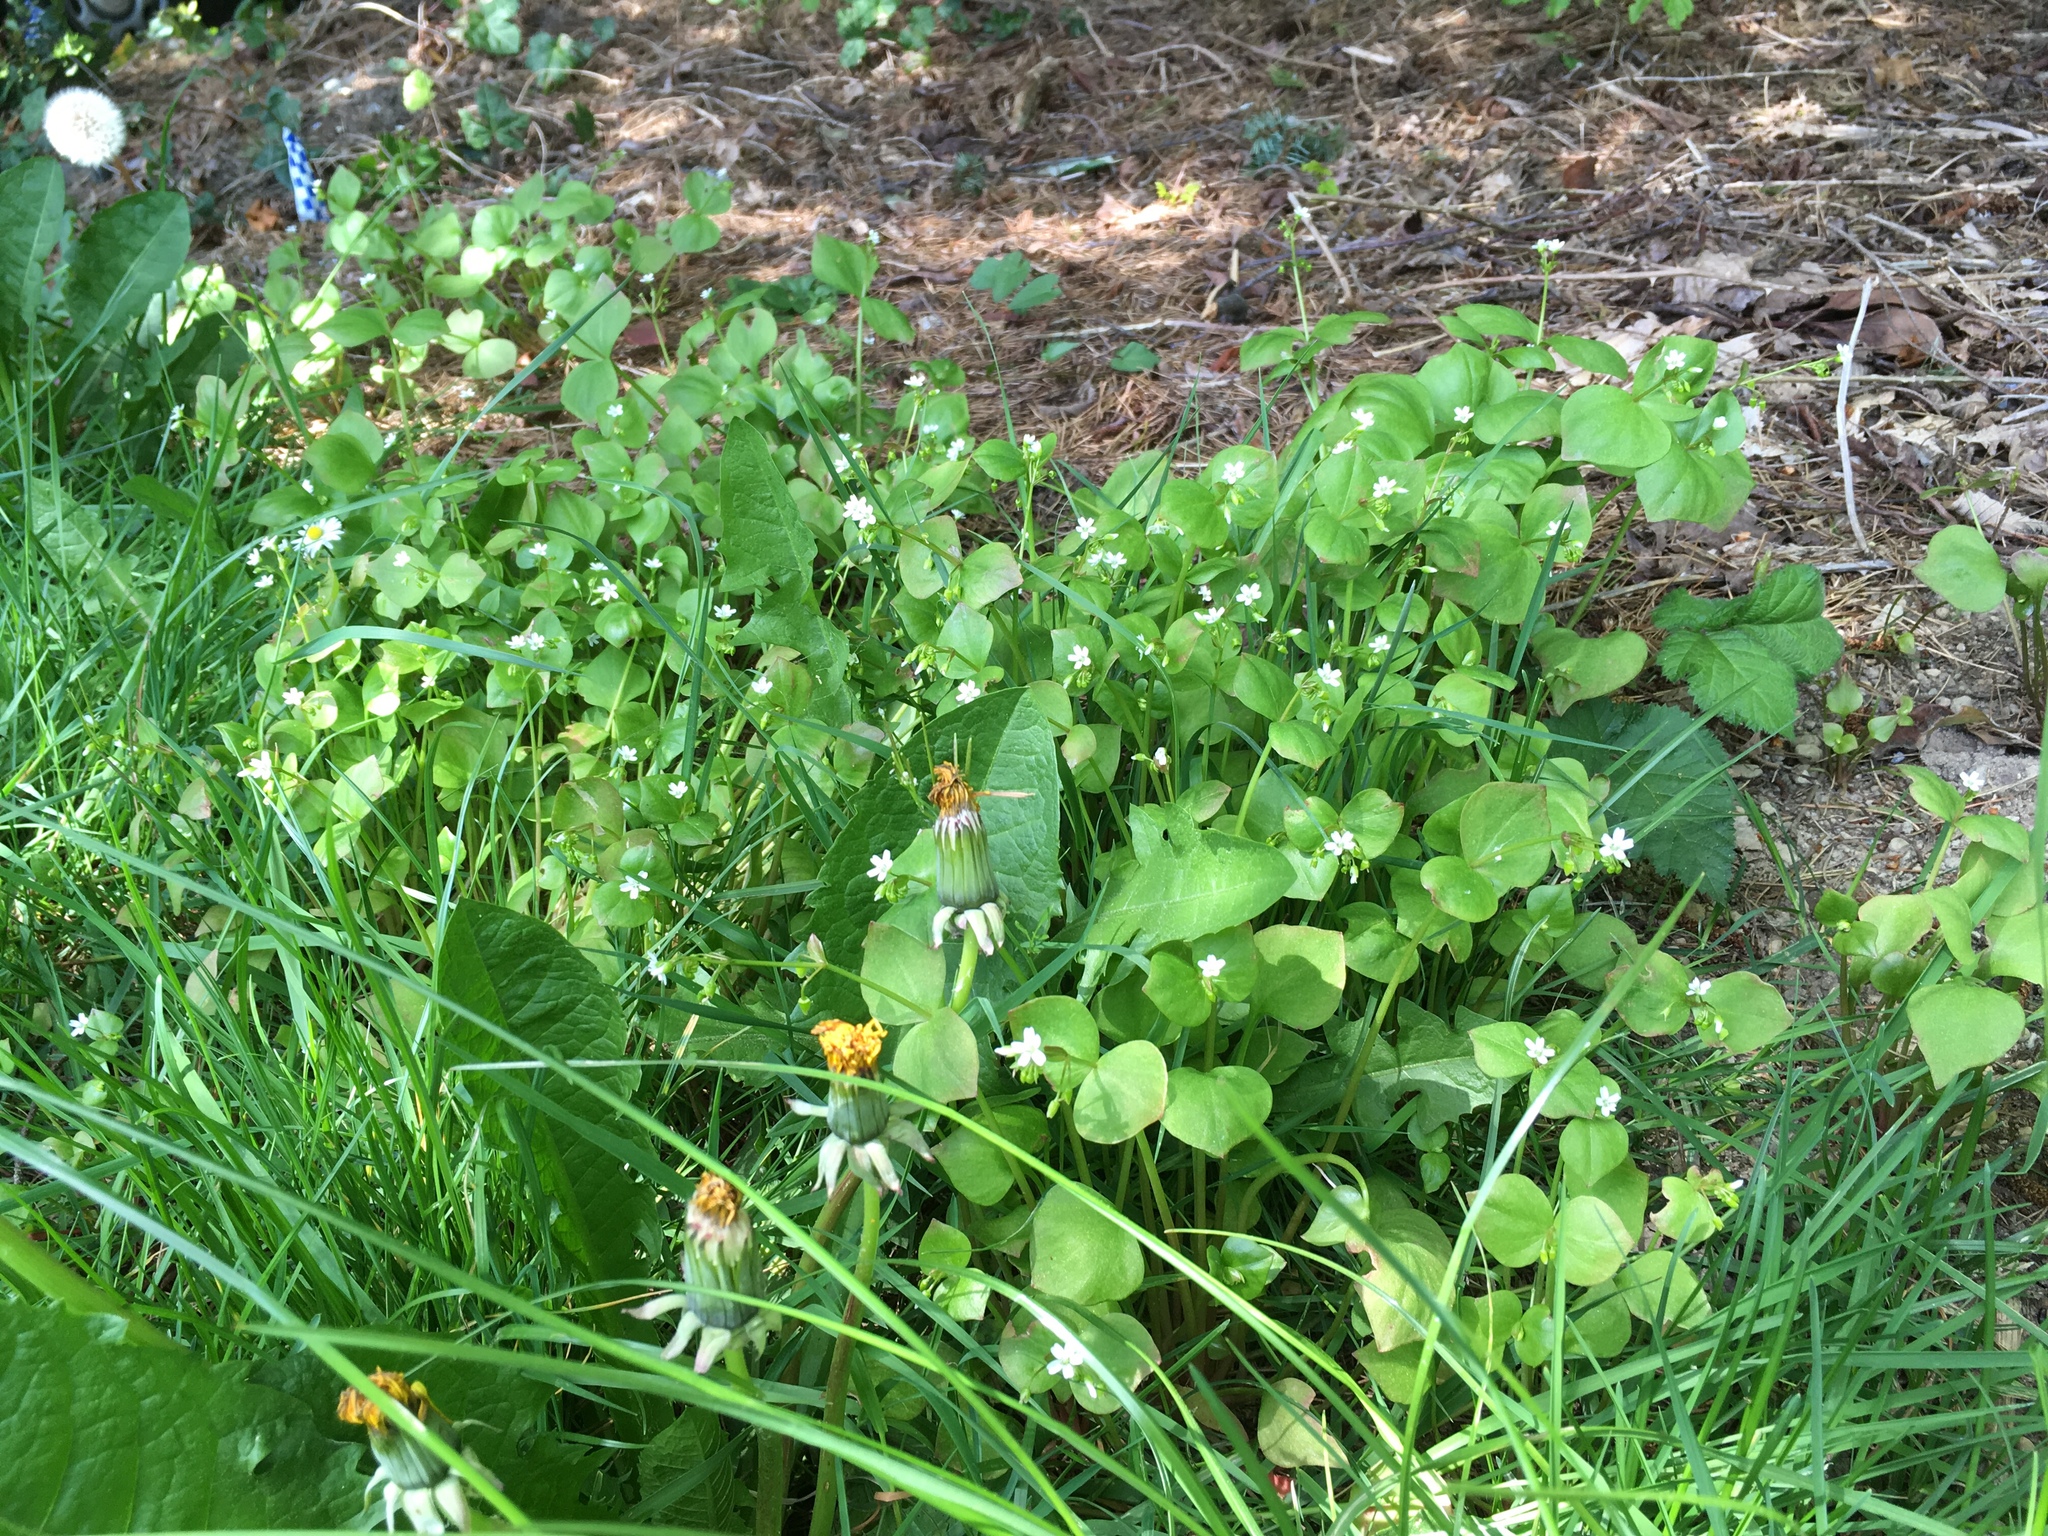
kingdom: Plantae
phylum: Tracheophyta
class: Magnoliopsida
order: Caryophyllales
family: Montiaceae
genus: Claytonia
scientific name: Claytonia washingtoniana
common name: Lake washington claytonia
